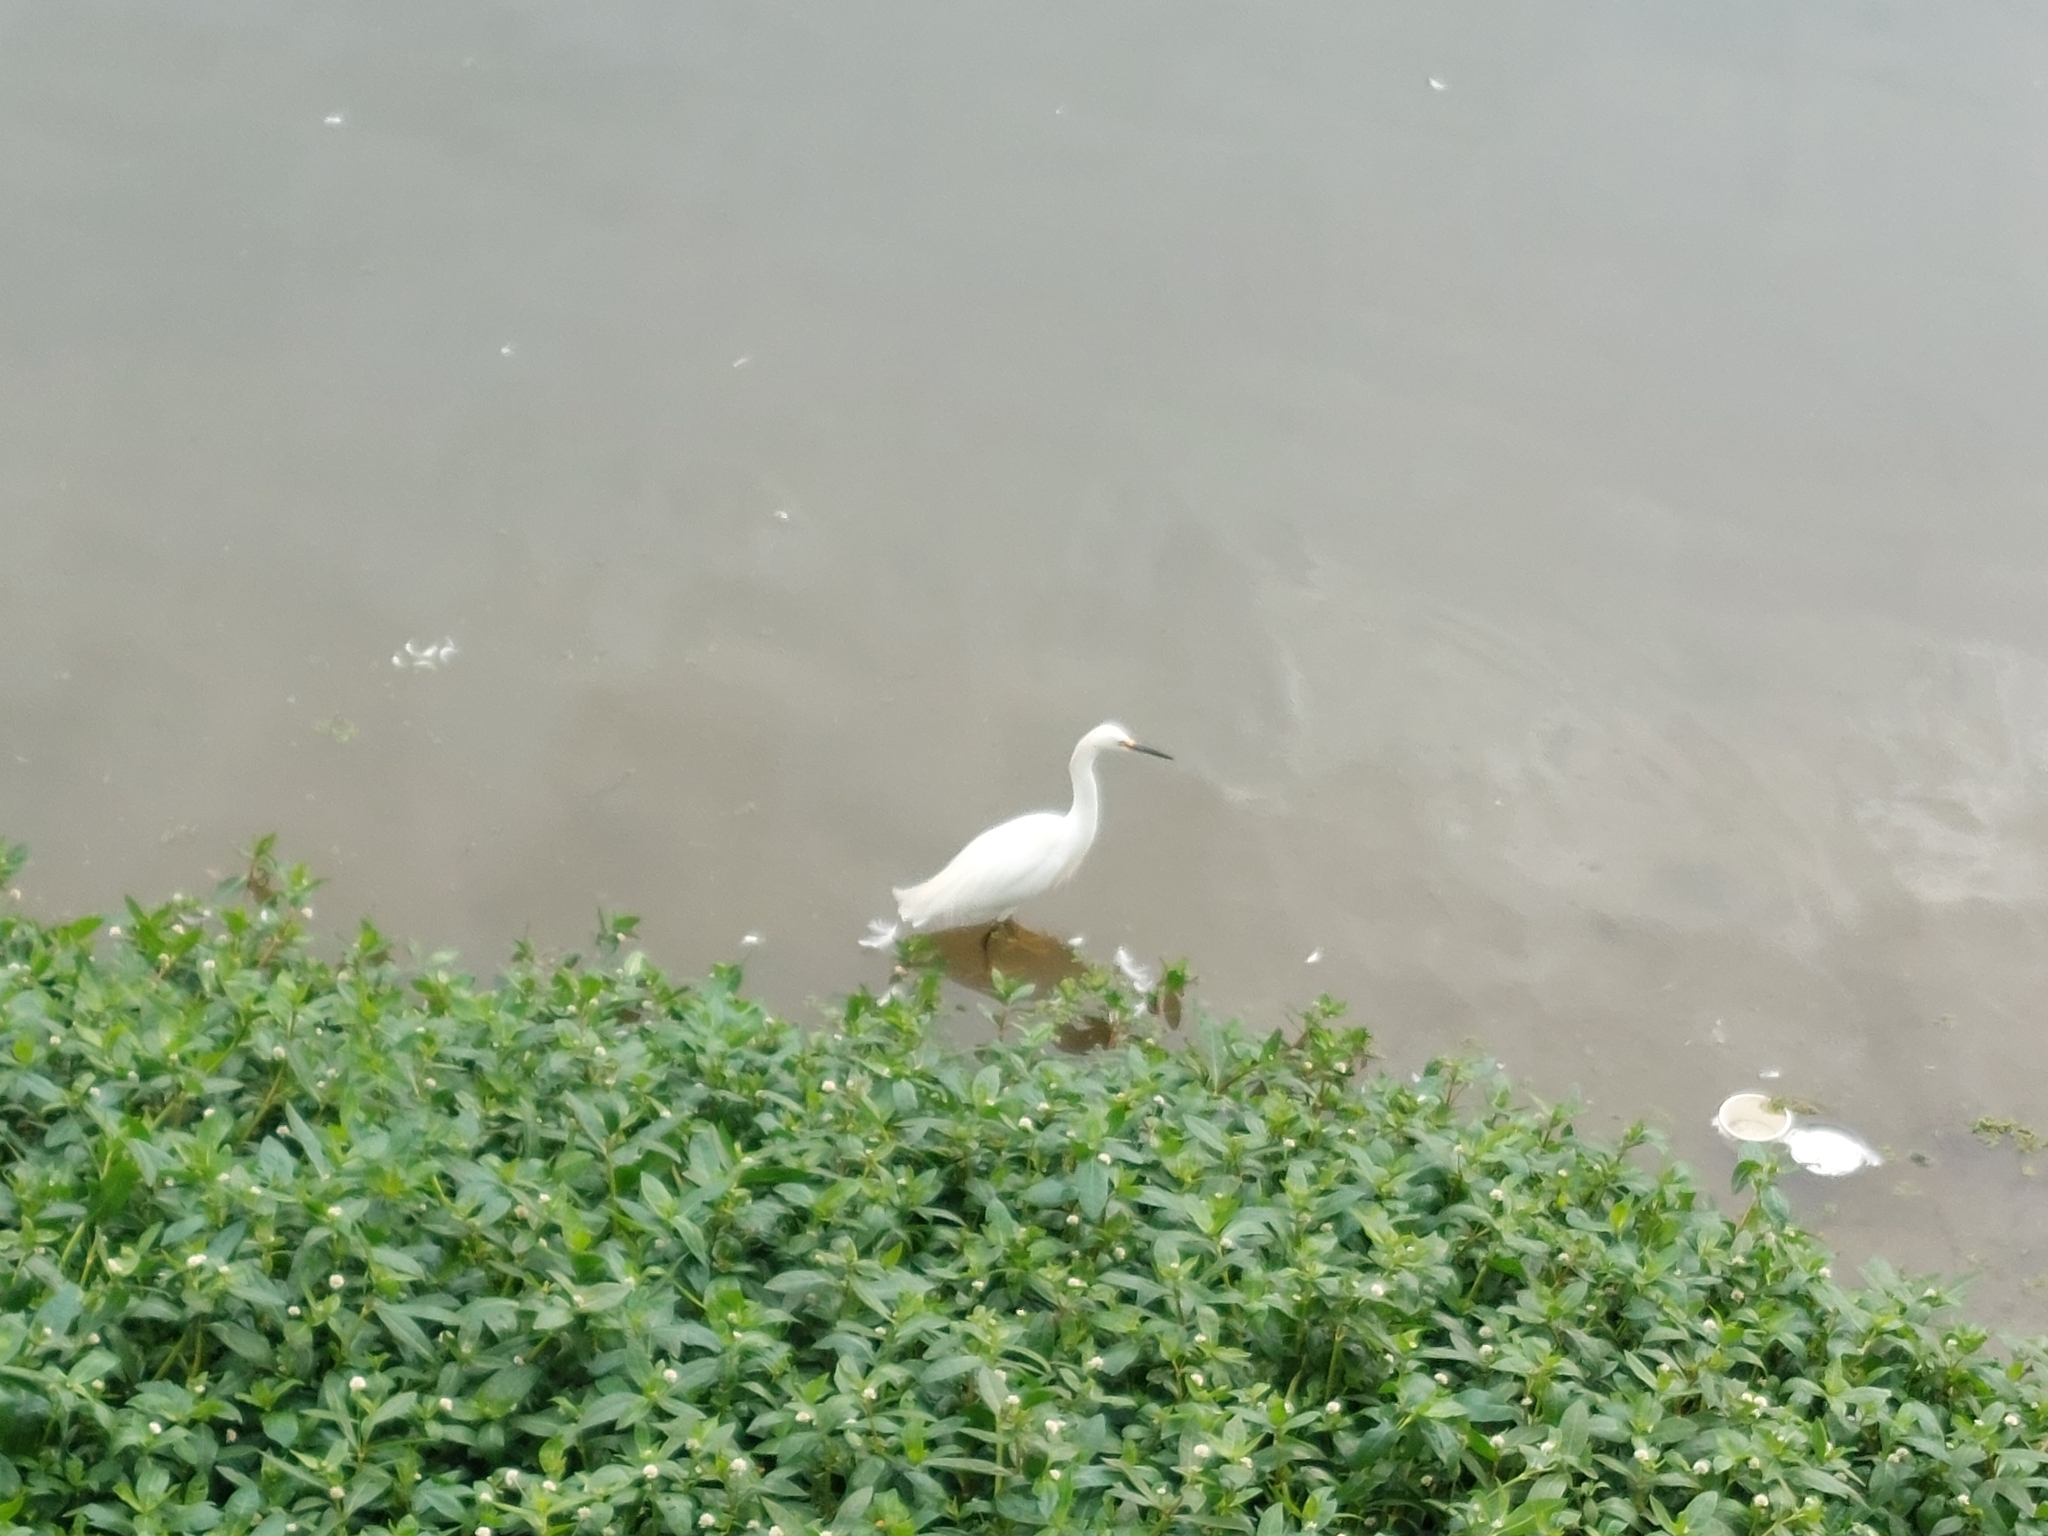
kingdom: Animalia
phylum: Chordata
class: Aves
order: Pelecaniformes
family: Ardeidae
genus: Egretta
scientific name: Egretta thula
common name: Snowy egret
